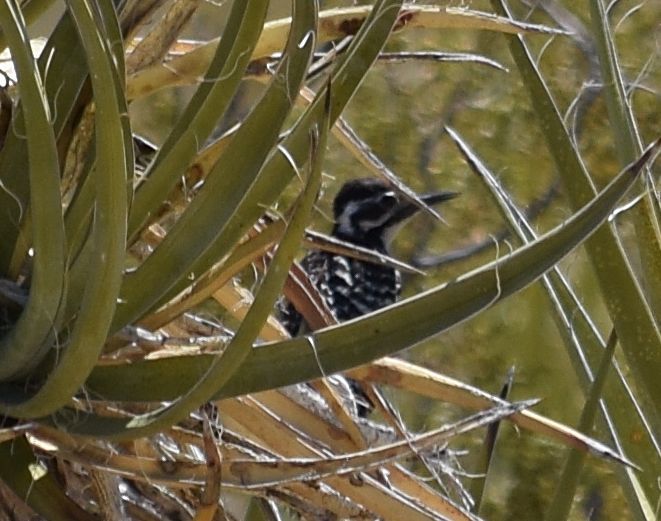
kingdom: Animalia
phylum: Chordata
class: Aves
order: Piciformes
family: Picidae
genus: Dryobates
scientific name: Dryobates scalaris
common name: Ladder-backed woodpecker
